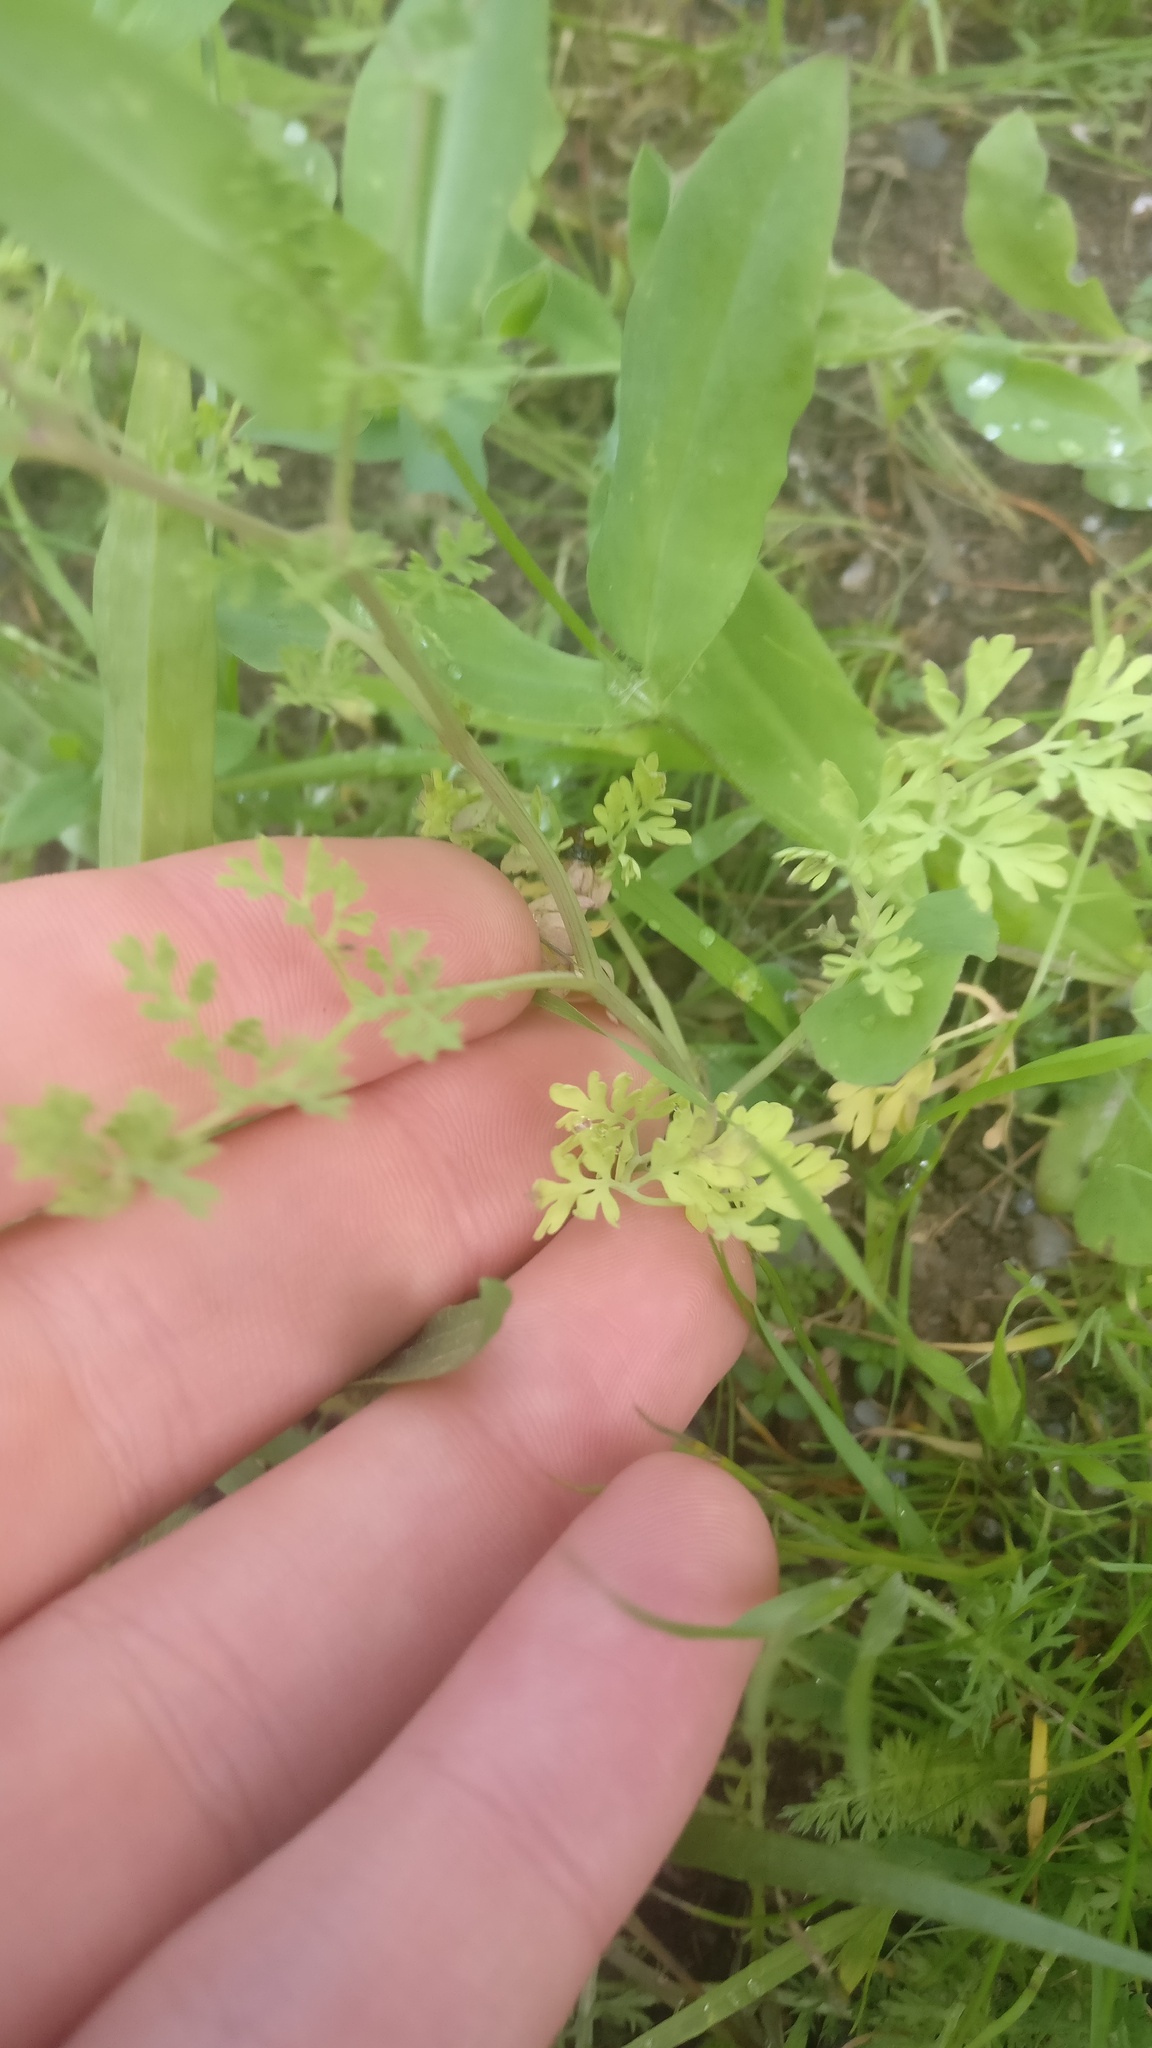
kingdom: Plantae
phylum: Tracheophyta
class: Magnoliopsida
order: Ranunculales
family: Papaveraceae
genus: Fumaria
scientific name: Fumaria officinalis
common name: Common fumitory
